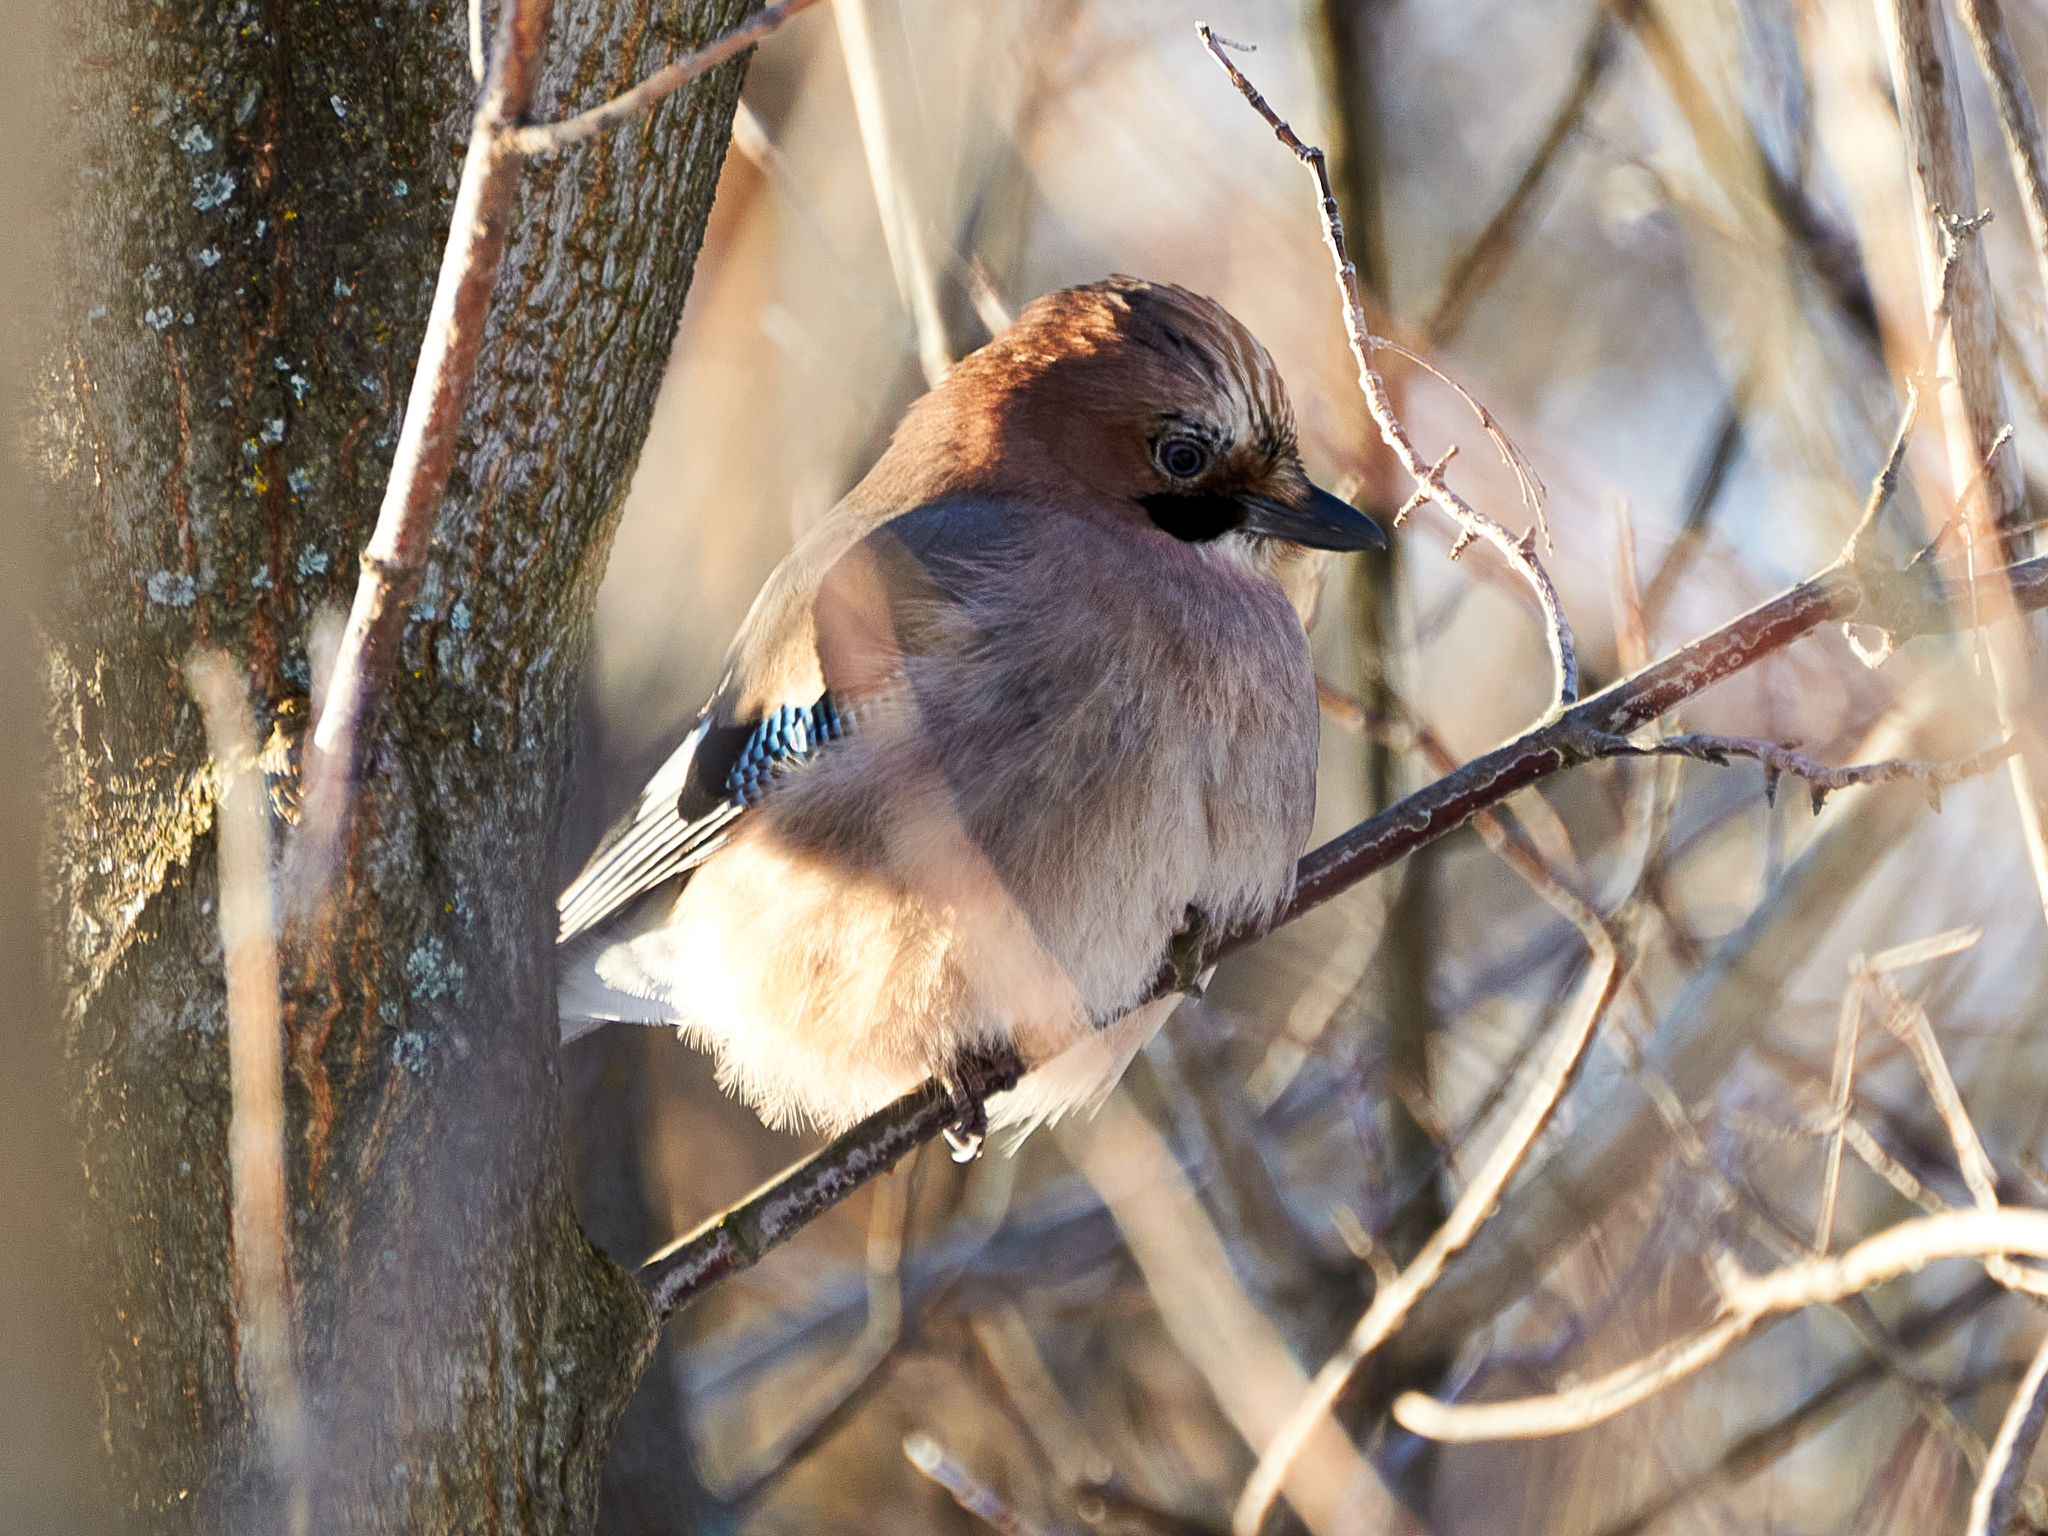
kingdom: Animalia
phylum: Chordata
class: Aves
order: Passeriformes
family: Corvidae
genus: Garrulus
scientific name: Garrulus glandarius
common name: Eurasian jay
